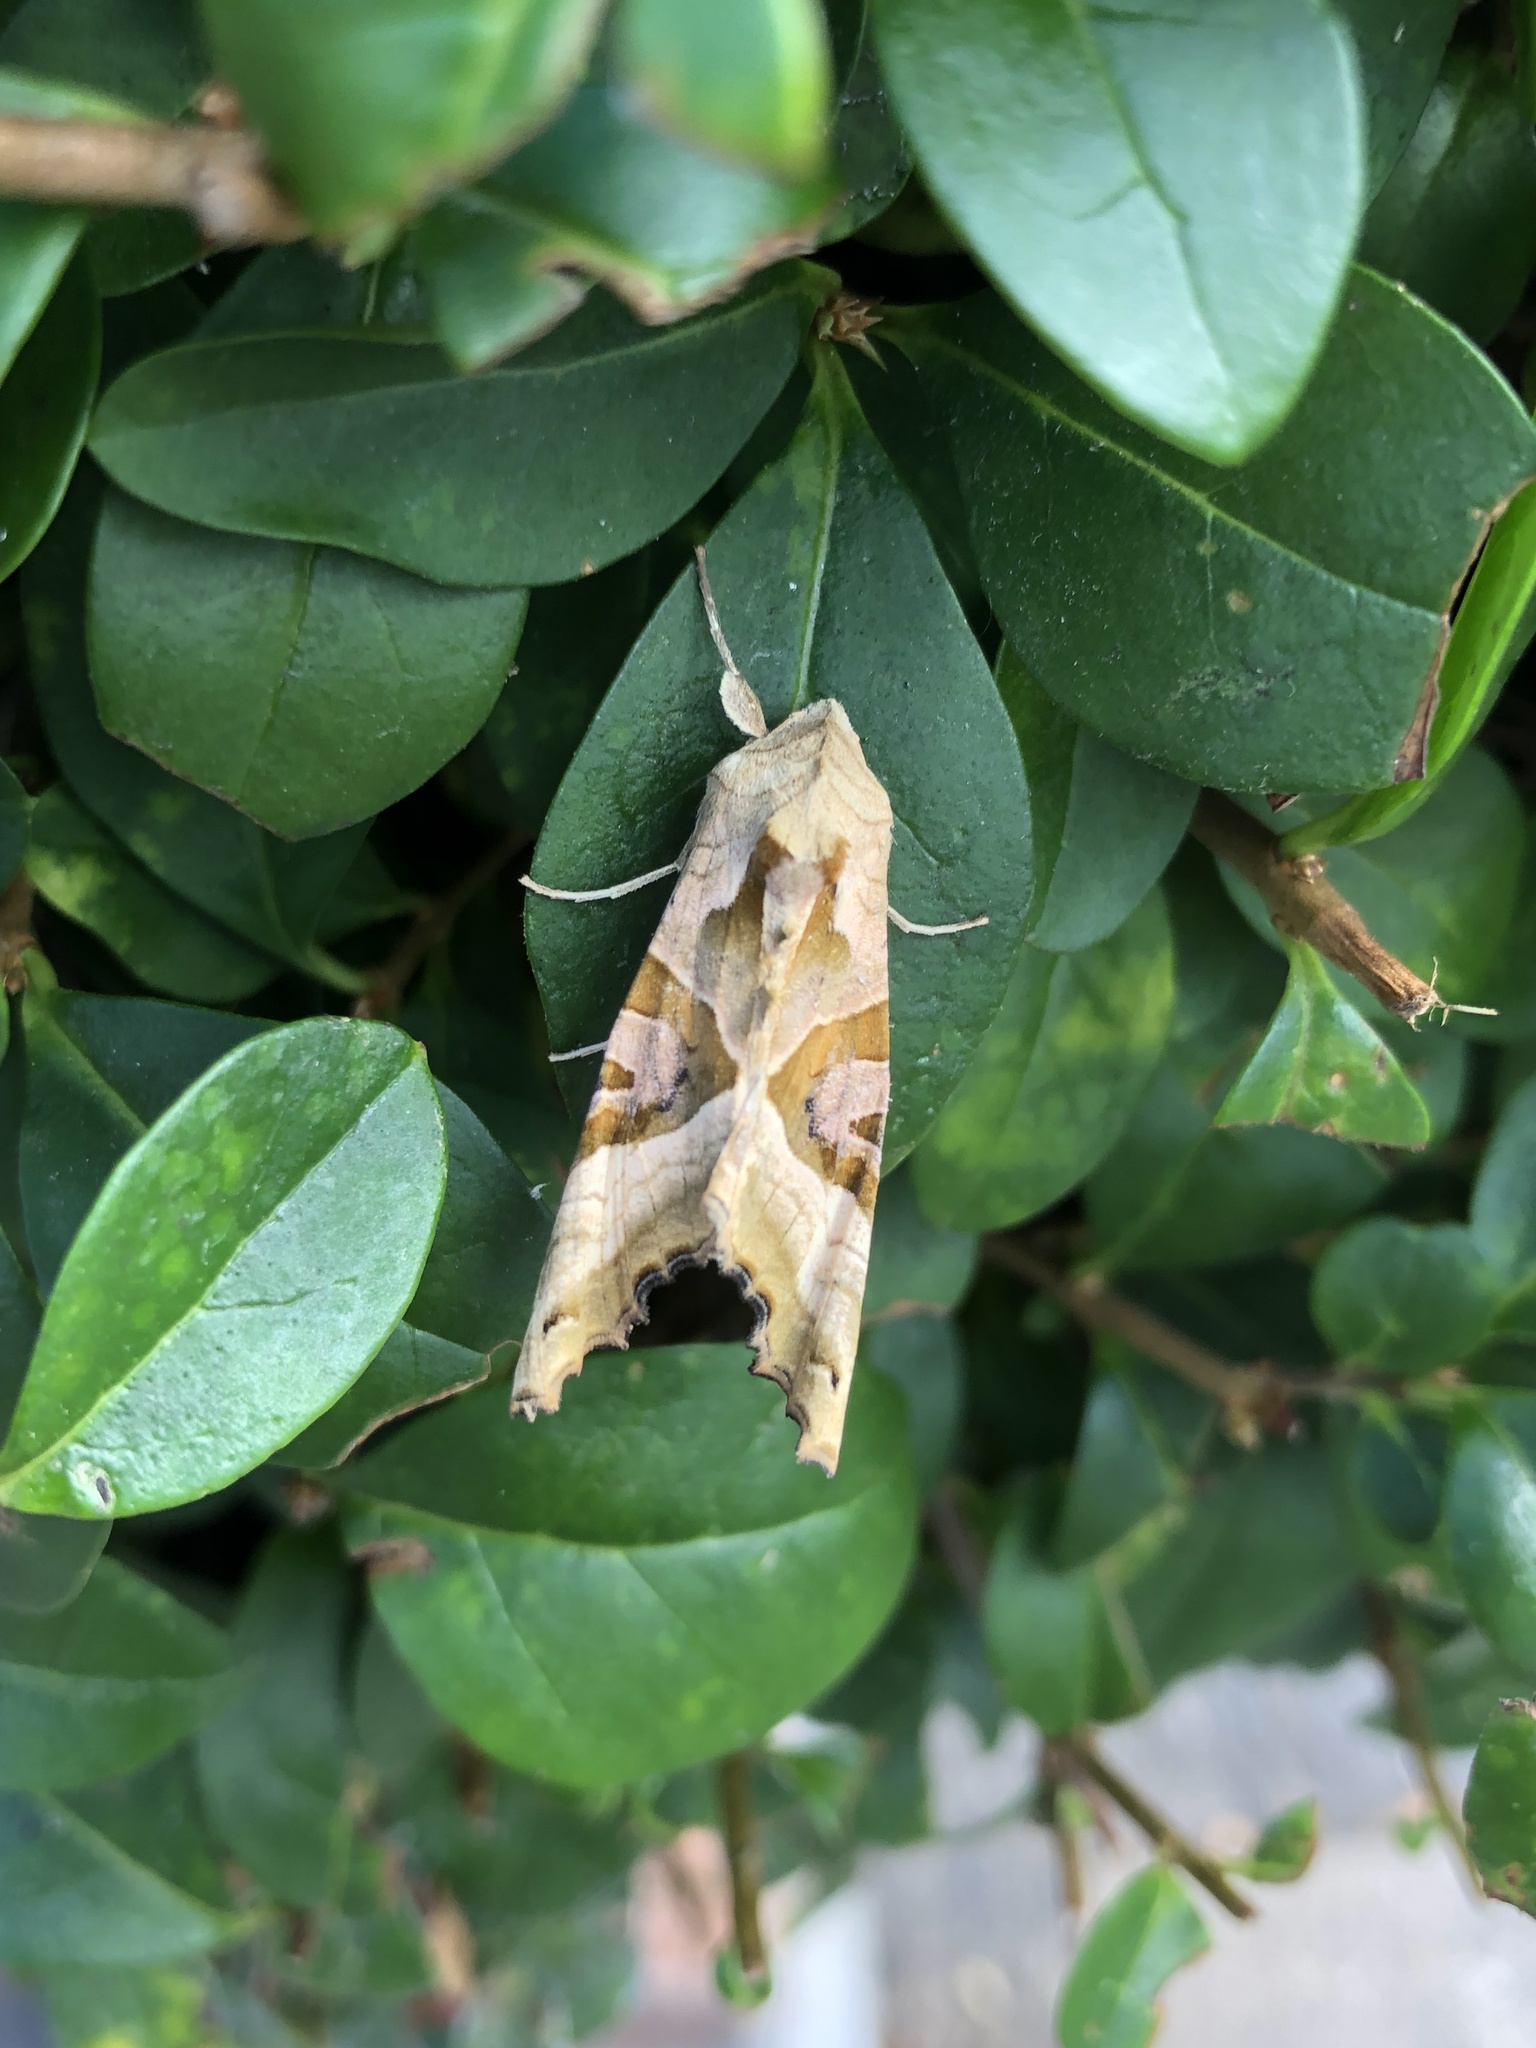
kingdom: Animalia
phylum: Arthropoda
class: Insecta
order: Lepidoptera
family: Noctuidae
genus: Phlogophora
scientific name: Phlogophora meticulosa
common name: Angle shades
